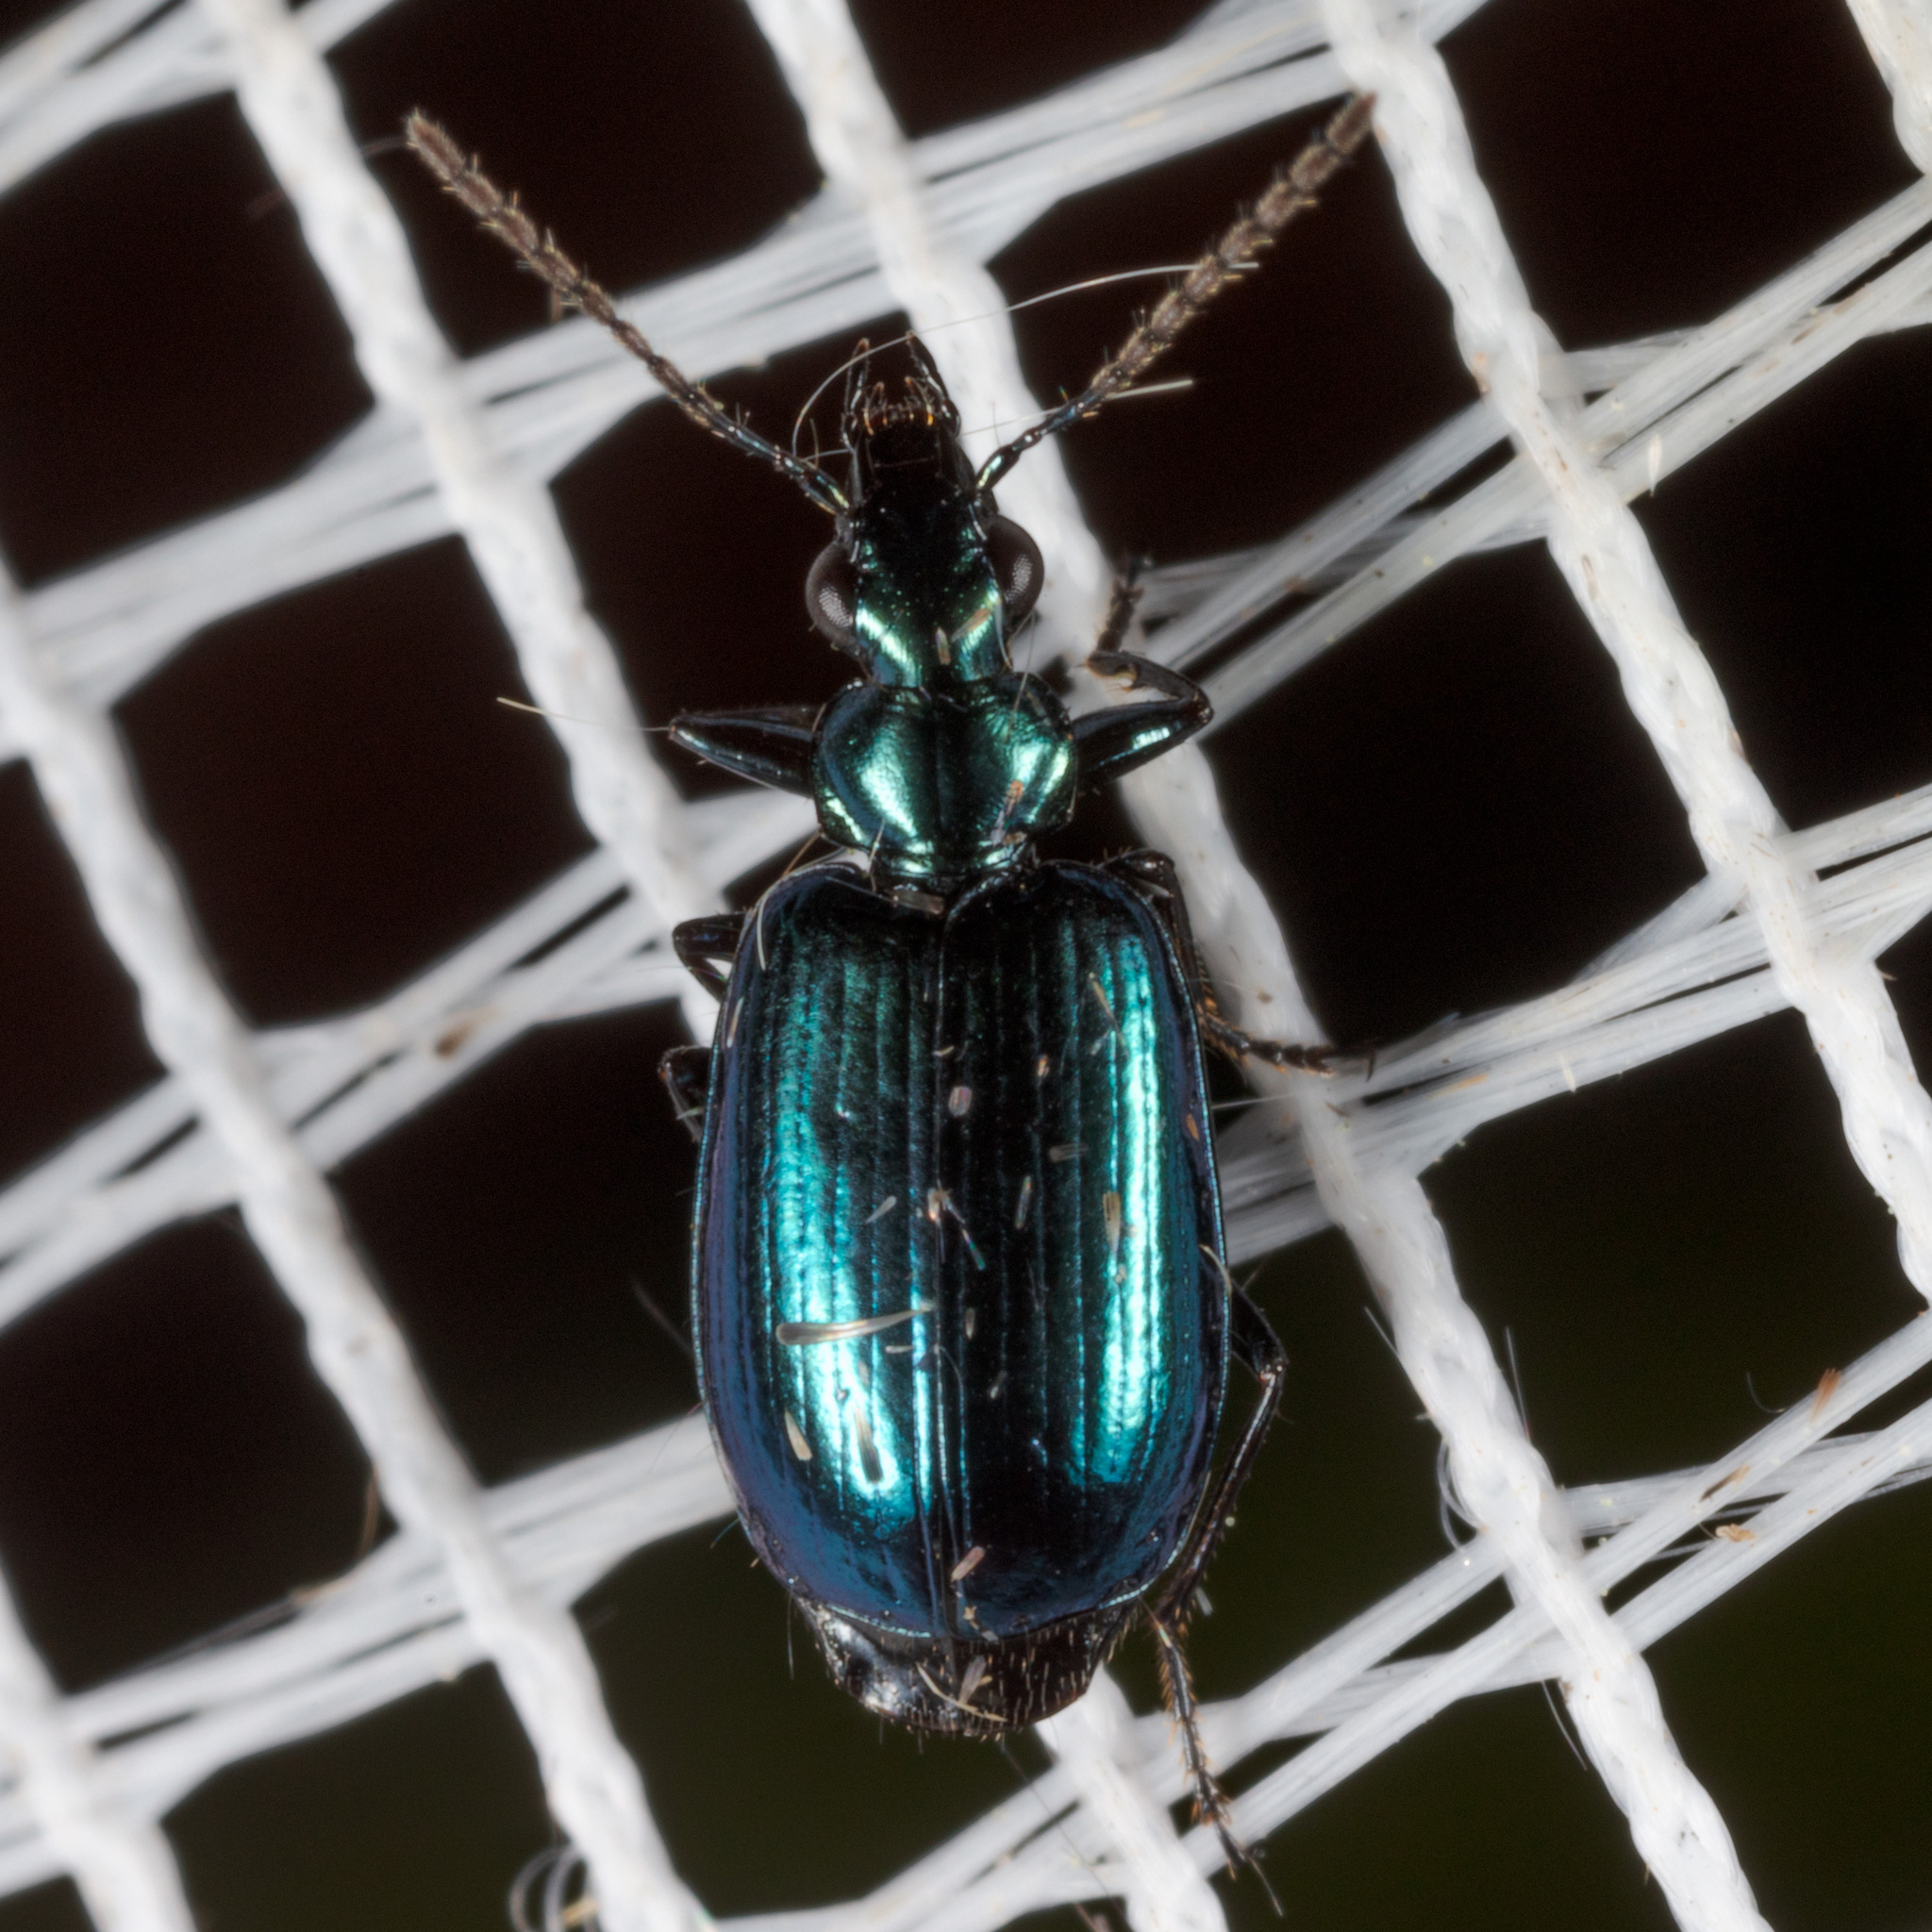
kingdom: Animalia
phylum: Arthropoda
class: Insecta
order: Coleoptera
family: Carabidae
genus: Lebia
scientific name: Lebia viridis
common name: Flower lebia beetle
